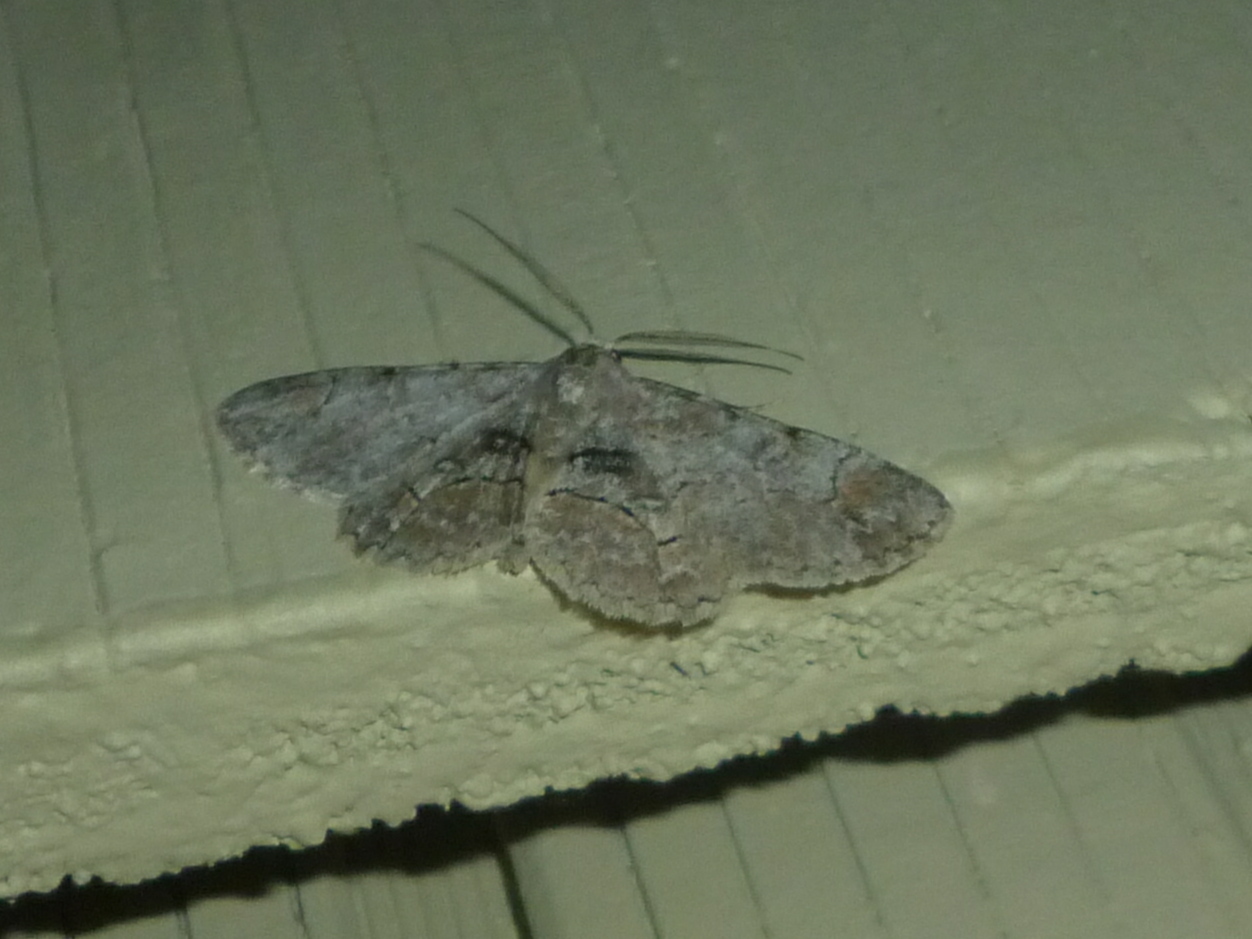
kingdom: Animalia
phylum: Arthropoda
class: Insecta
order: Lepidoptera
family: Geometridae
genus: Iridopsis
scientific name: Iridopsis larvaria
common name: Bent-line gray
